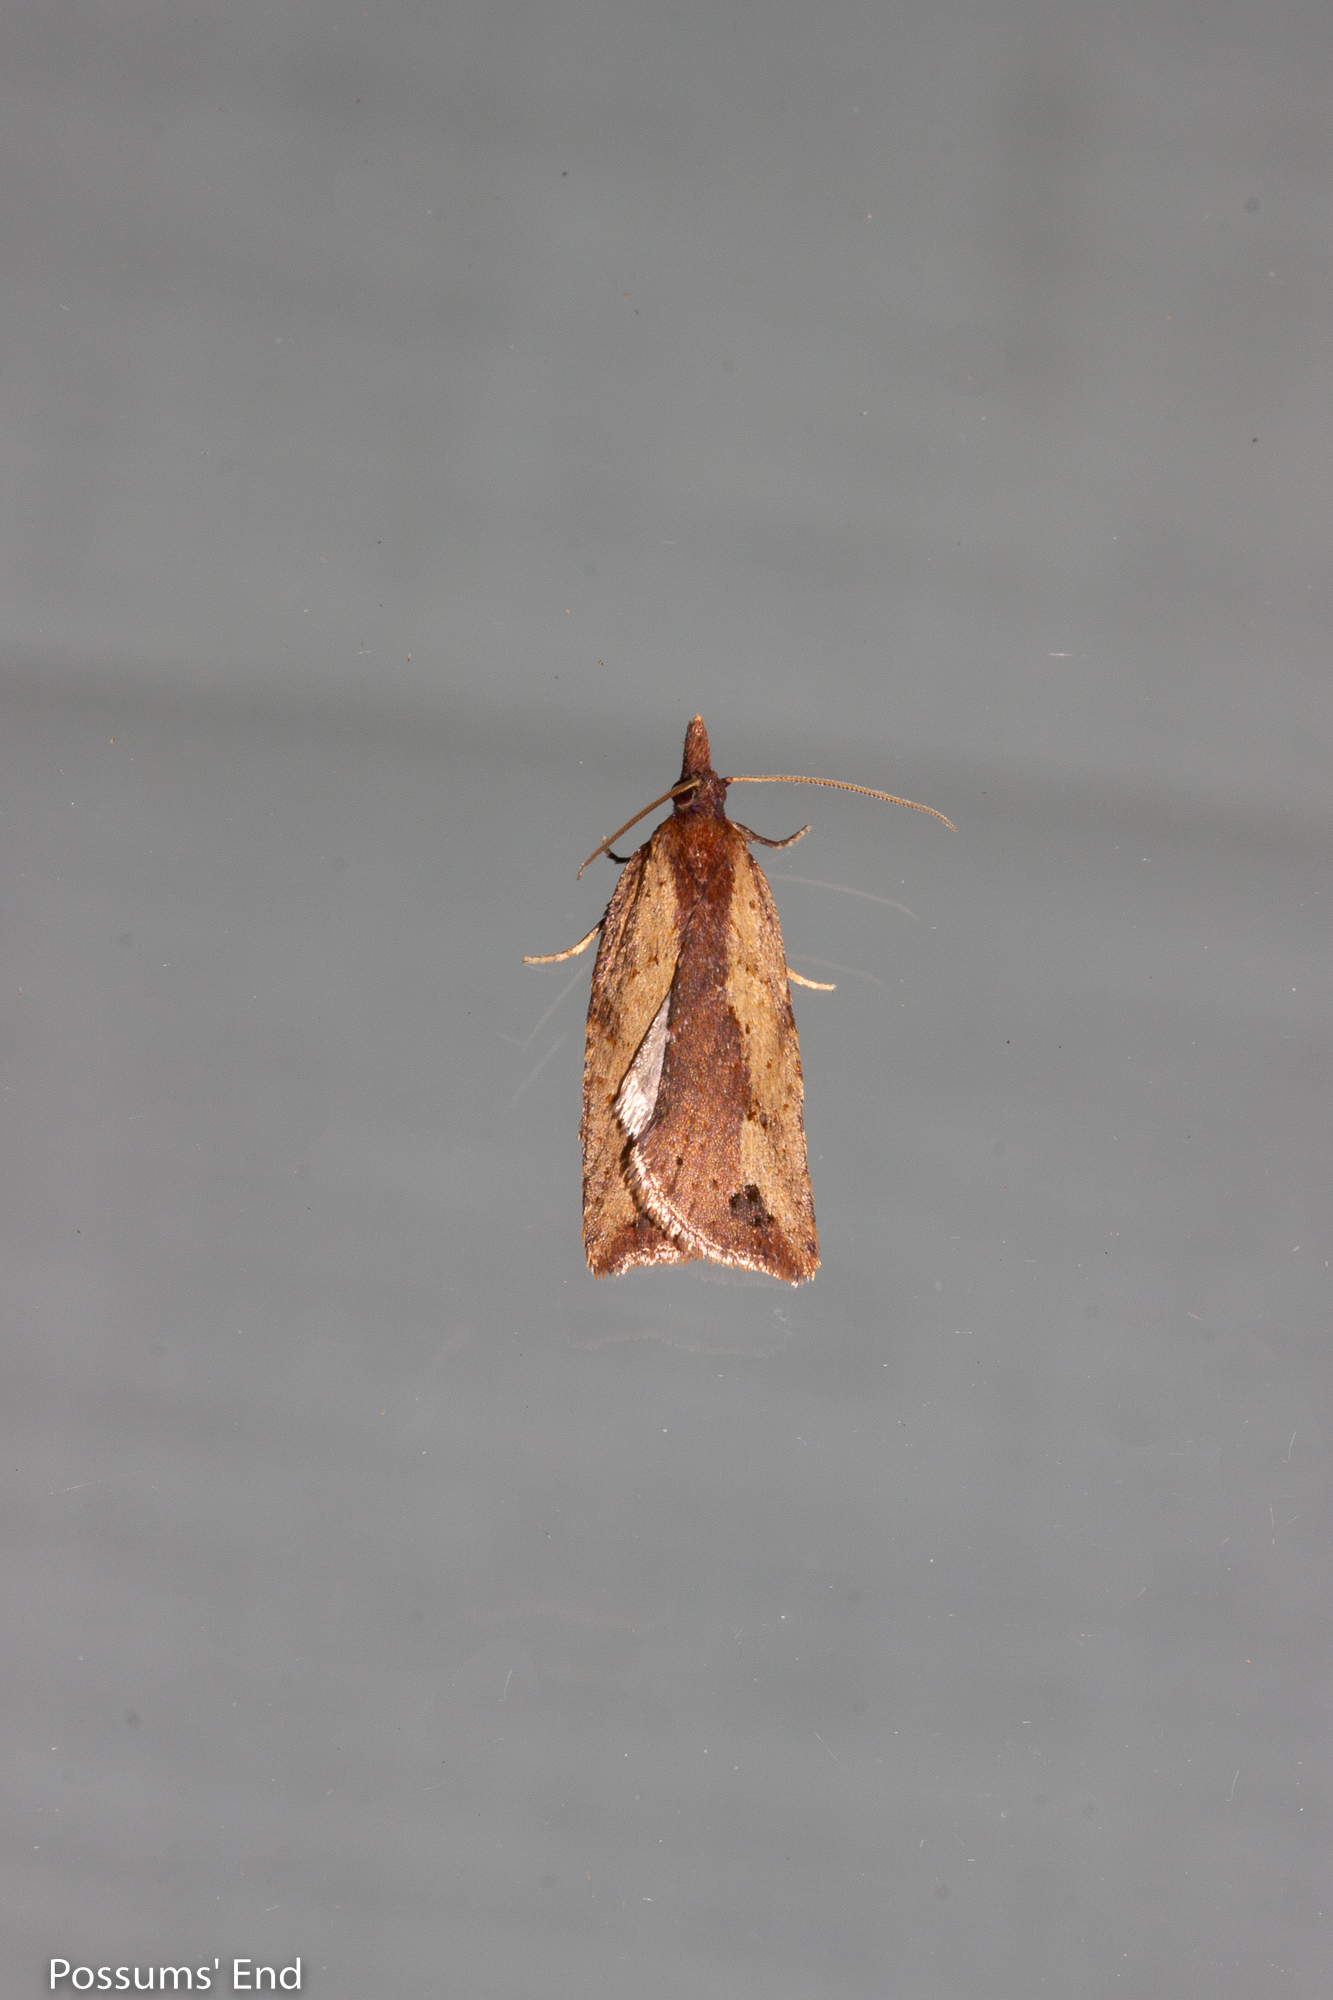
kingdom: Animalia
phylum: Arthropoda
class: Insecta
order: Lepidoptera
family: Tortricidae
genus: Planotortrix
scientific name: Planotortrix notophaea
